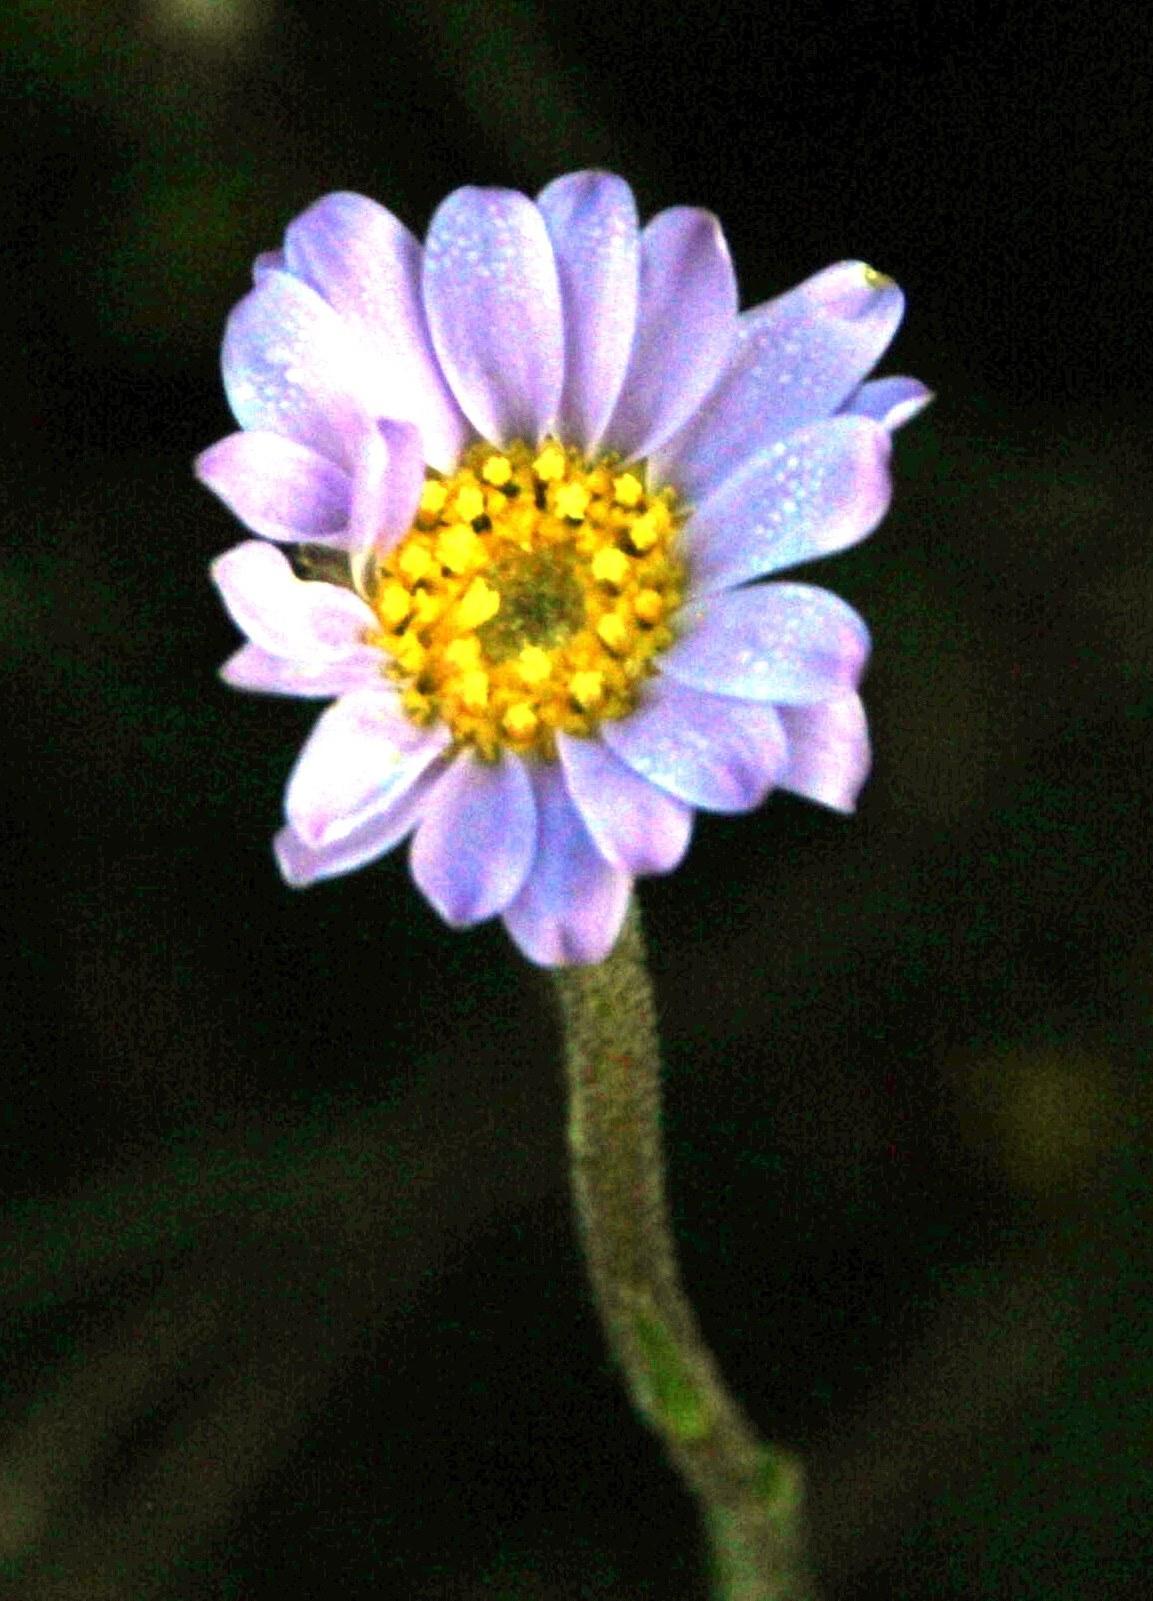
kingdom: Plantae
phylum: Tracheophyta
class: Magnoliopsida
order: Asterales
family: Asteraceae
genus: Zyrphelis
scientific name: Zyrphelis taxifolia
